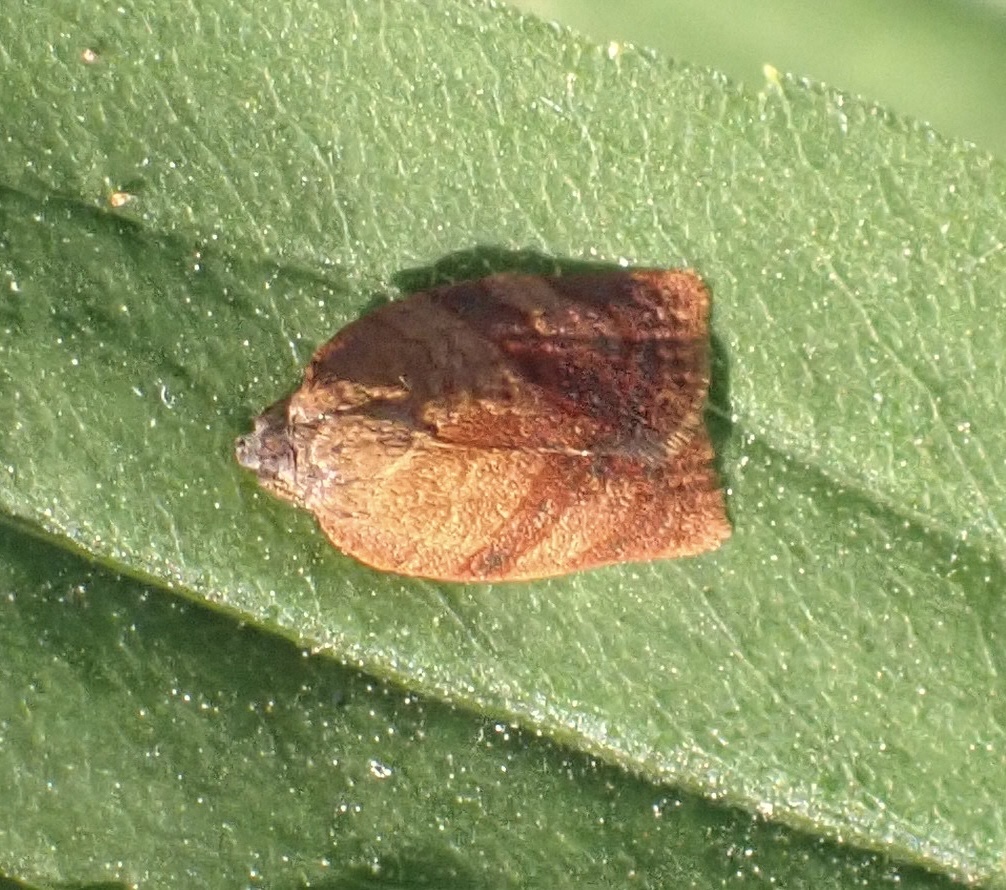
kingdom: Animalia
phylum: Arthropoda
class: Insecta
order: Lepidoptera
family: Tortricidae
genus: Cacoecimorpha
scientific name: Cacoecimorpha pronubana
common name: Carnation tortrix
